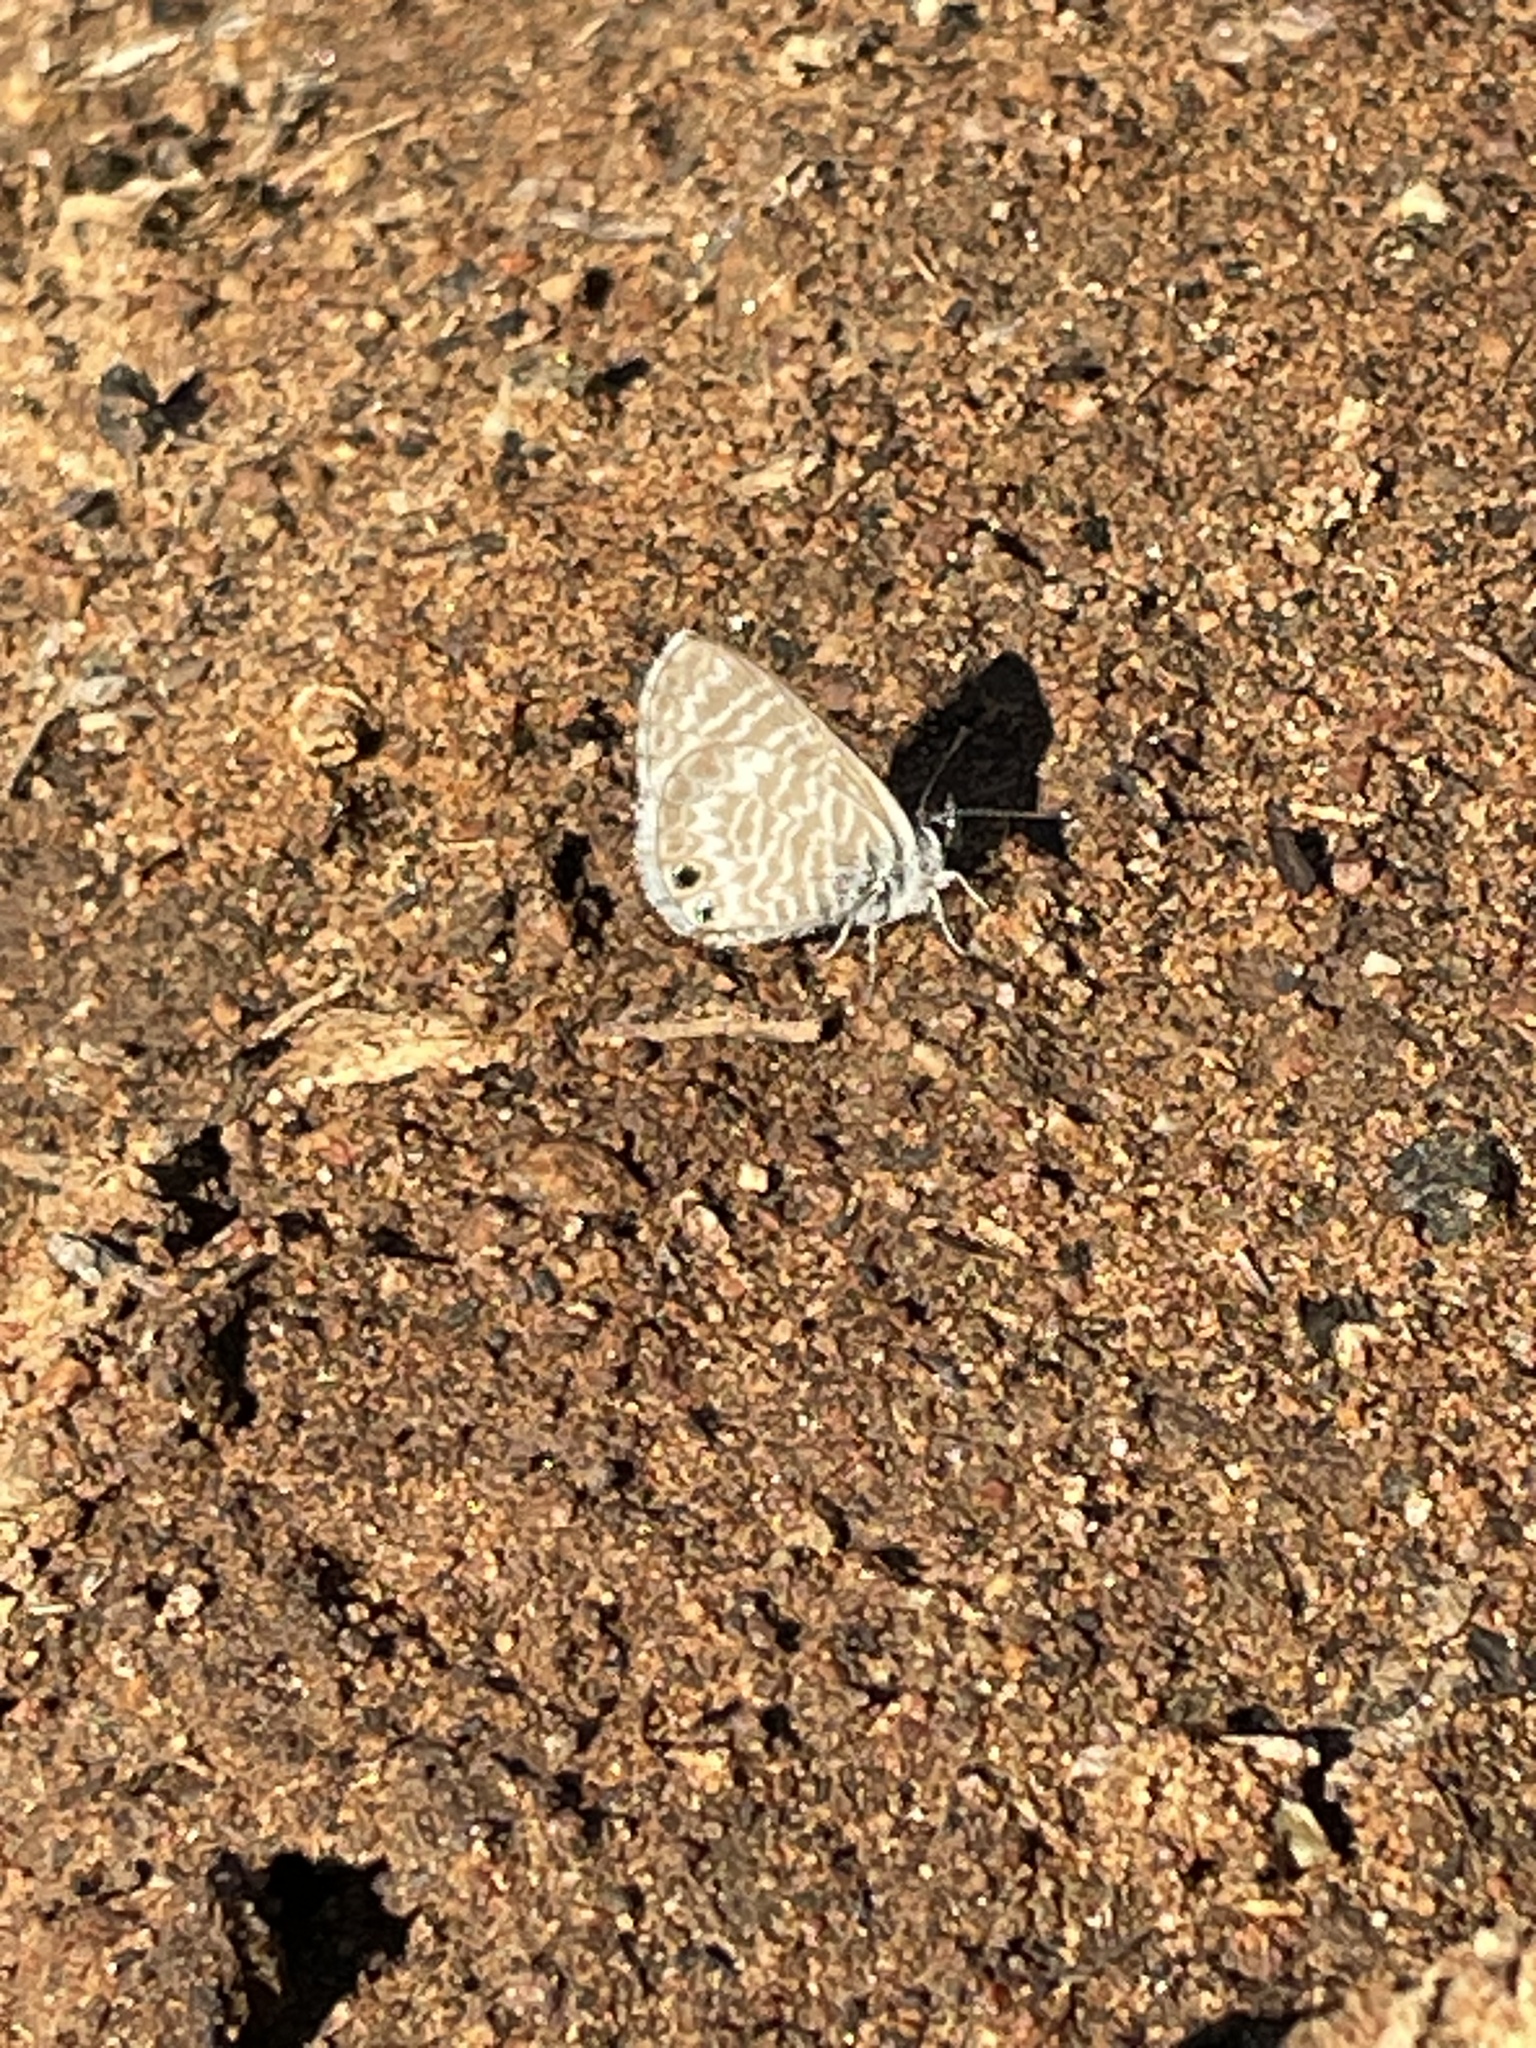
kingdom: Animalia
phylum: Arthropoda
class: Insecta
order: Lepidoptera
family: Lycaenidae
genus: Leptotes
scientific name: Leptotes marina
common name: Marine blue
